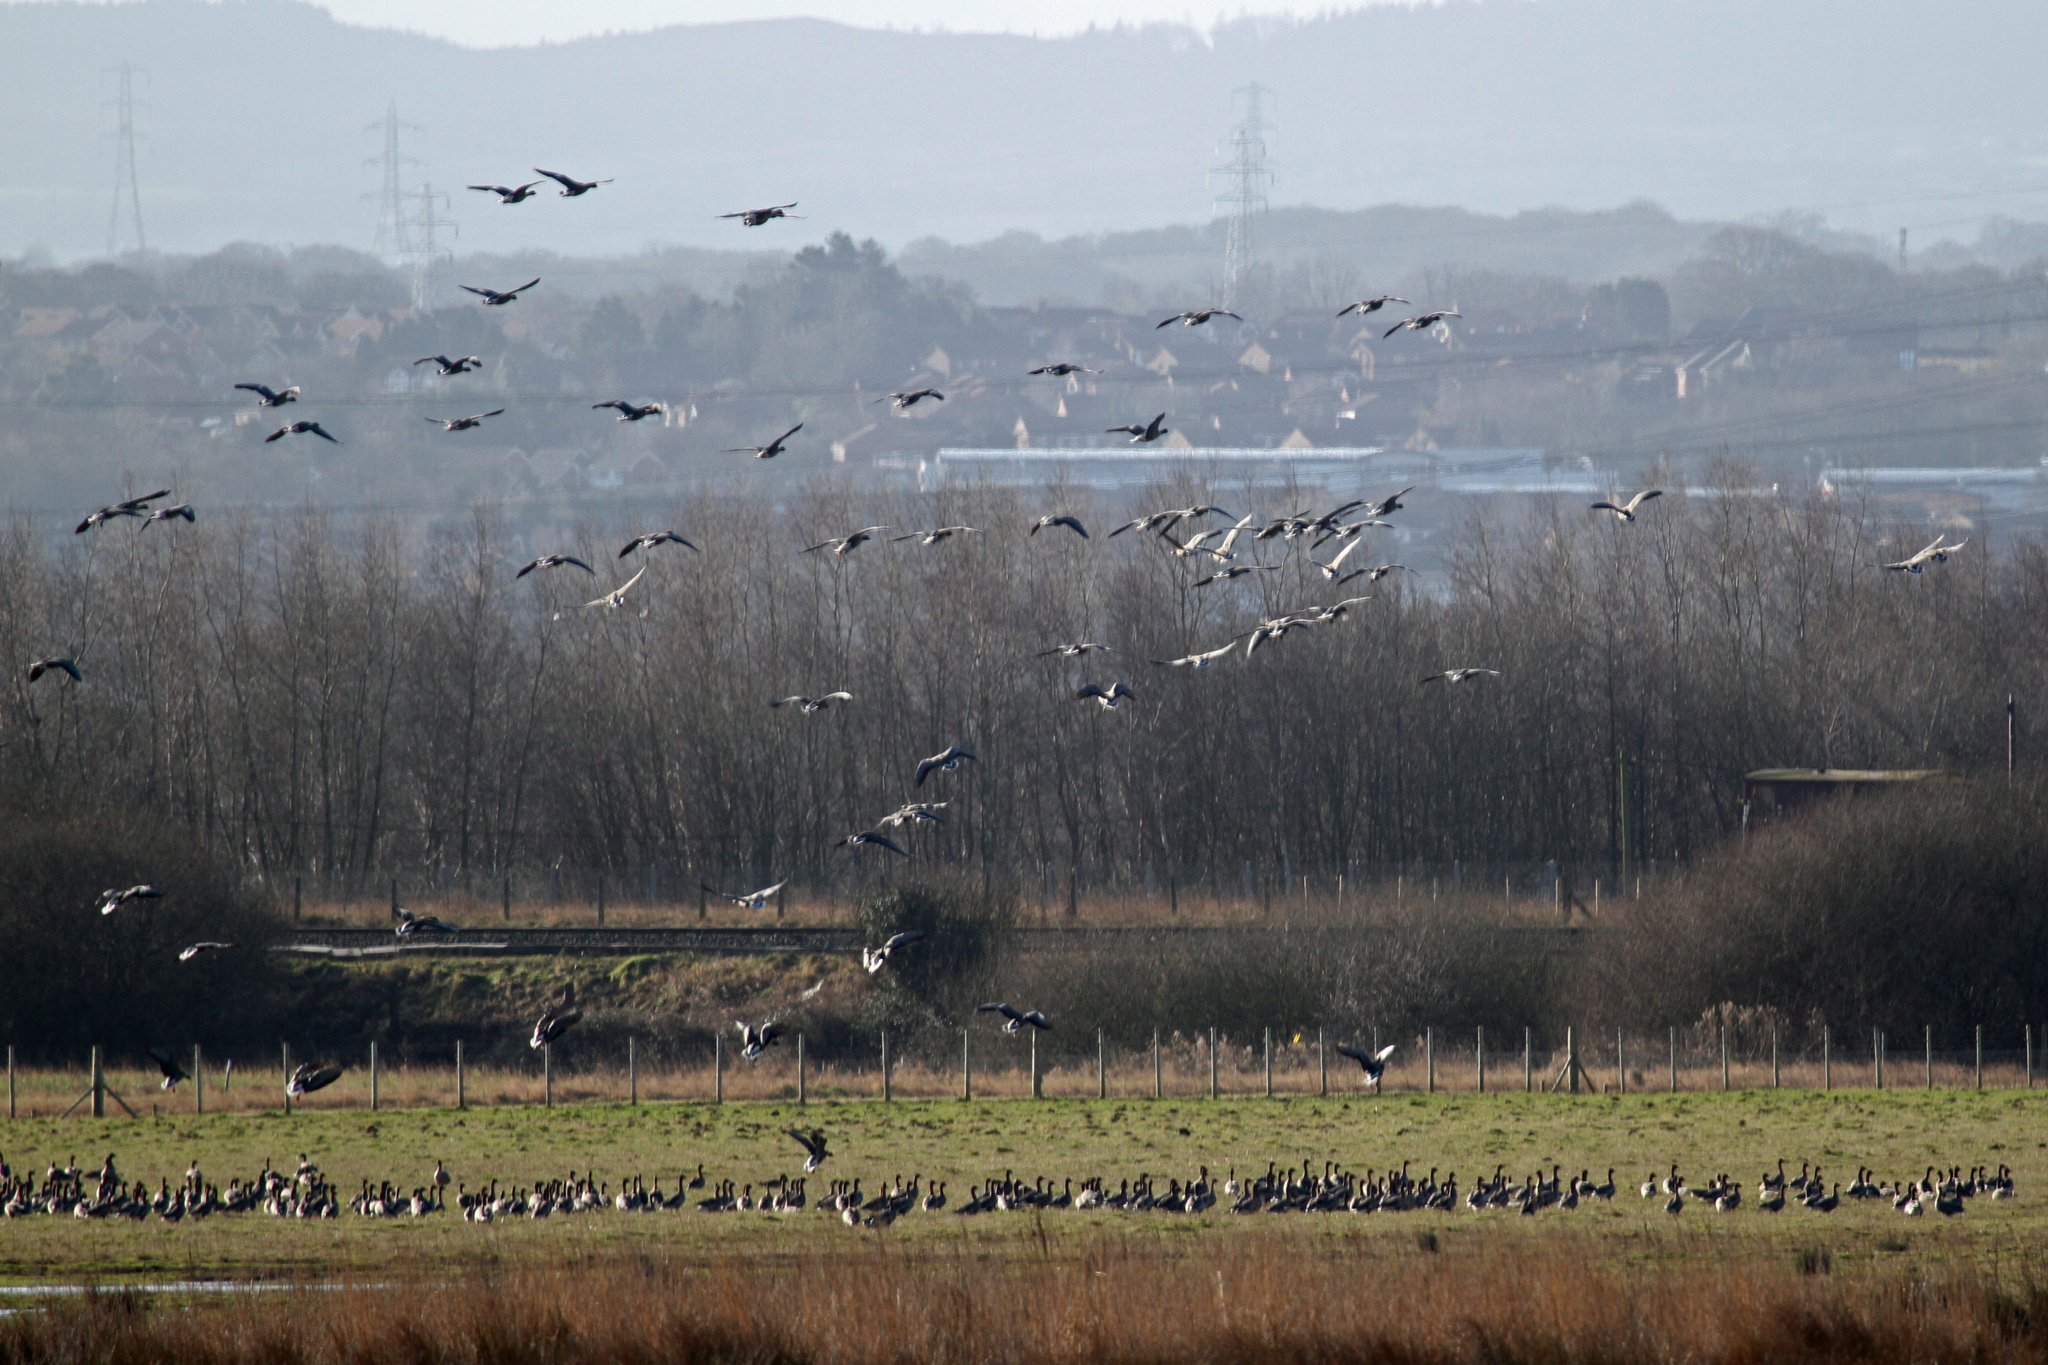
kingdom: Animalia
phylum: Chordata
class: Aves
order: Anseriformes
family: Anatidae
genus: Anser
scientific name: Anser brachyrhynchus
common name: Pink-footed goose
